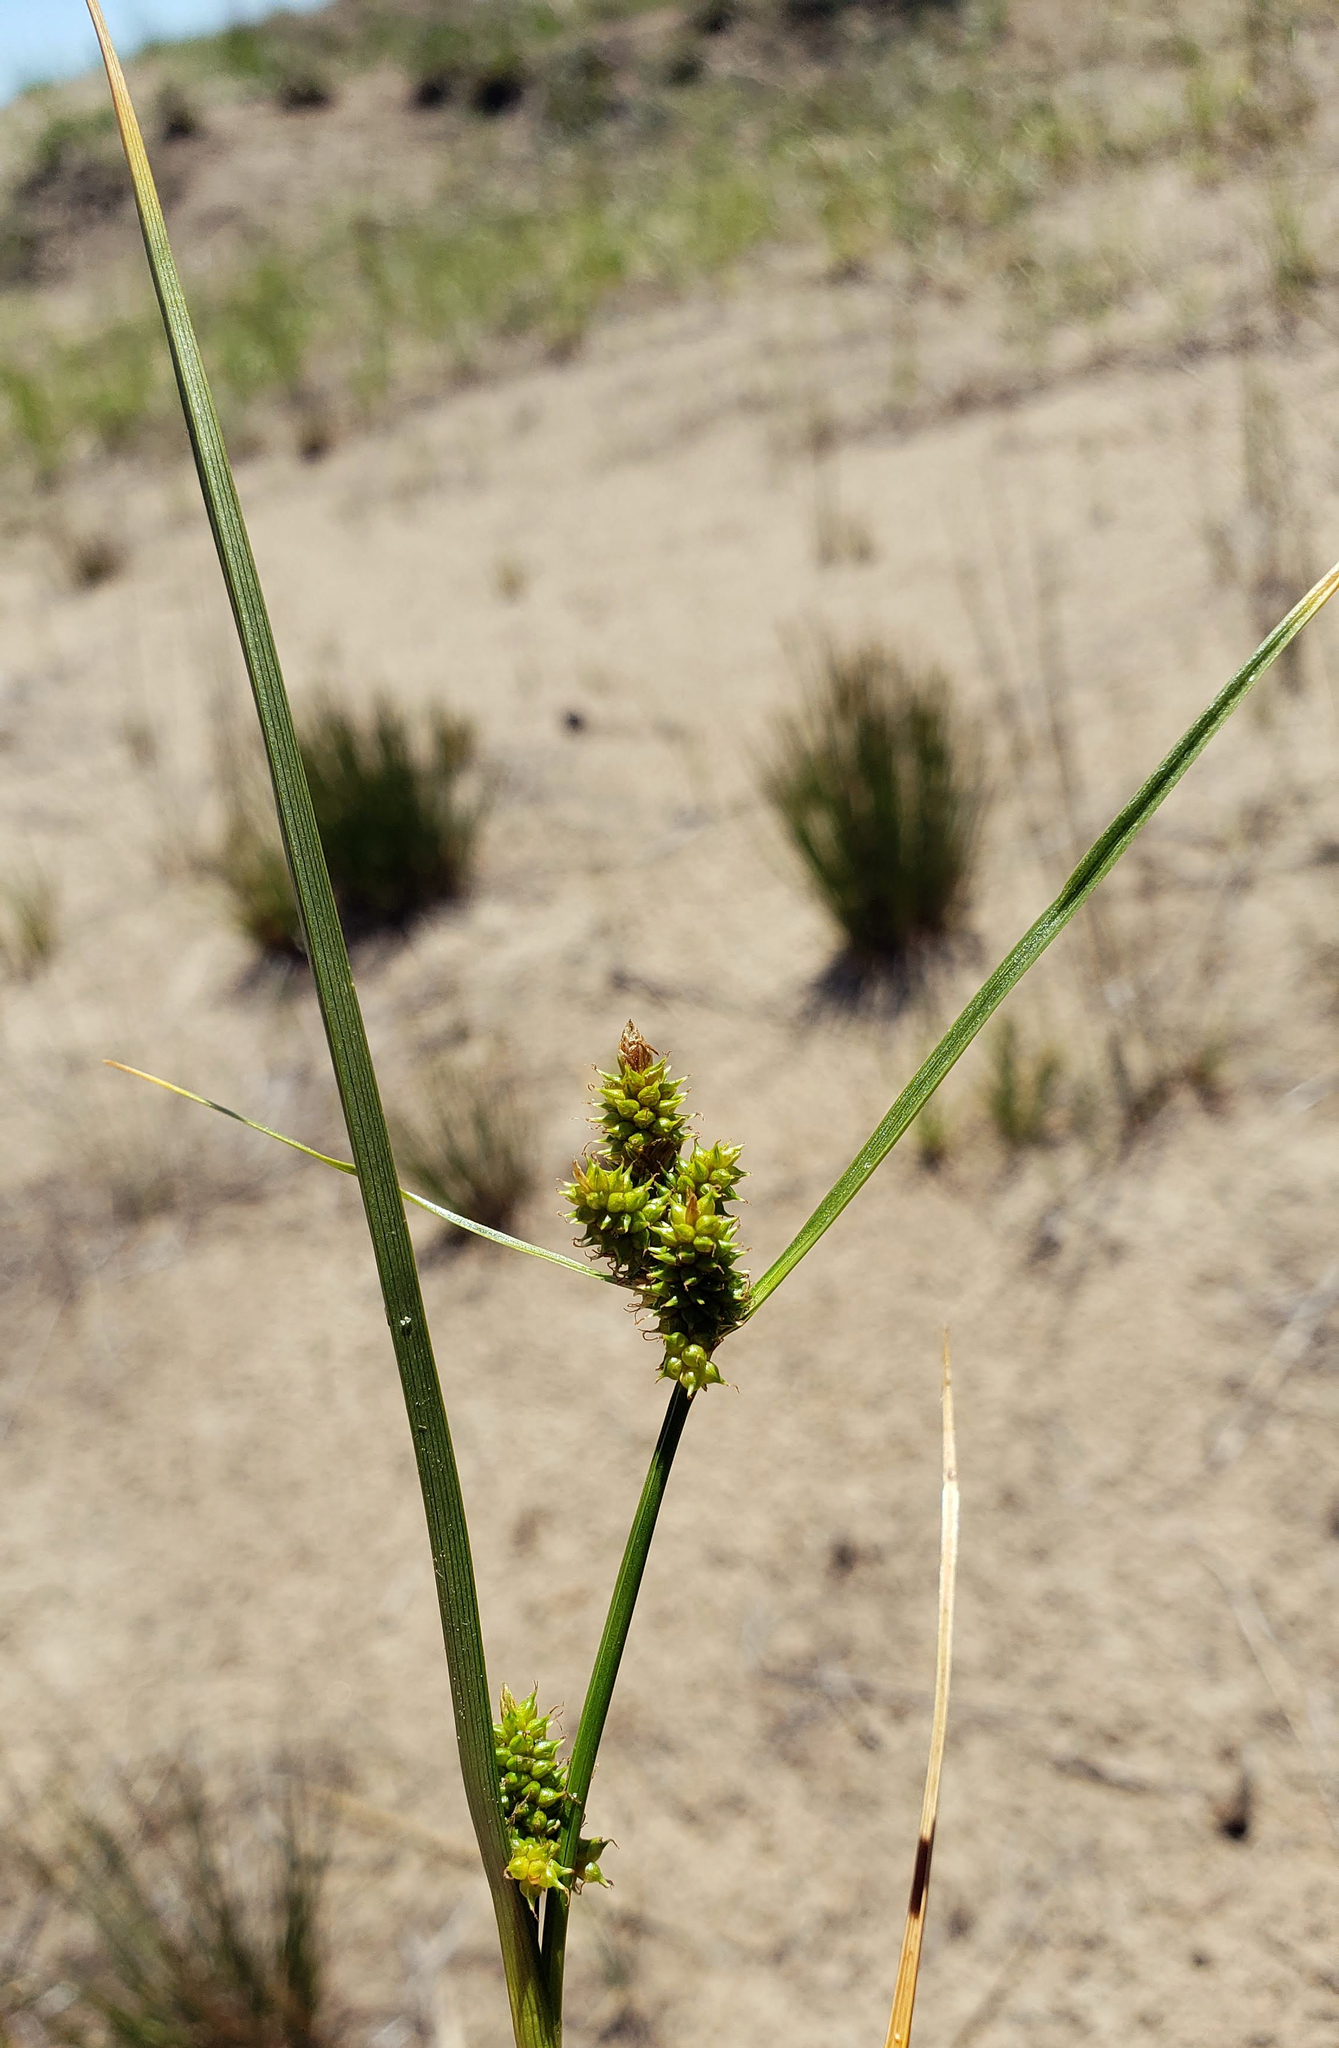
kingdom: Plantae
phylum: Tracheophyta
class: Liliopsida
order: Poales
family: Cyperaceae
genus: Carex
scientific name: Carex
